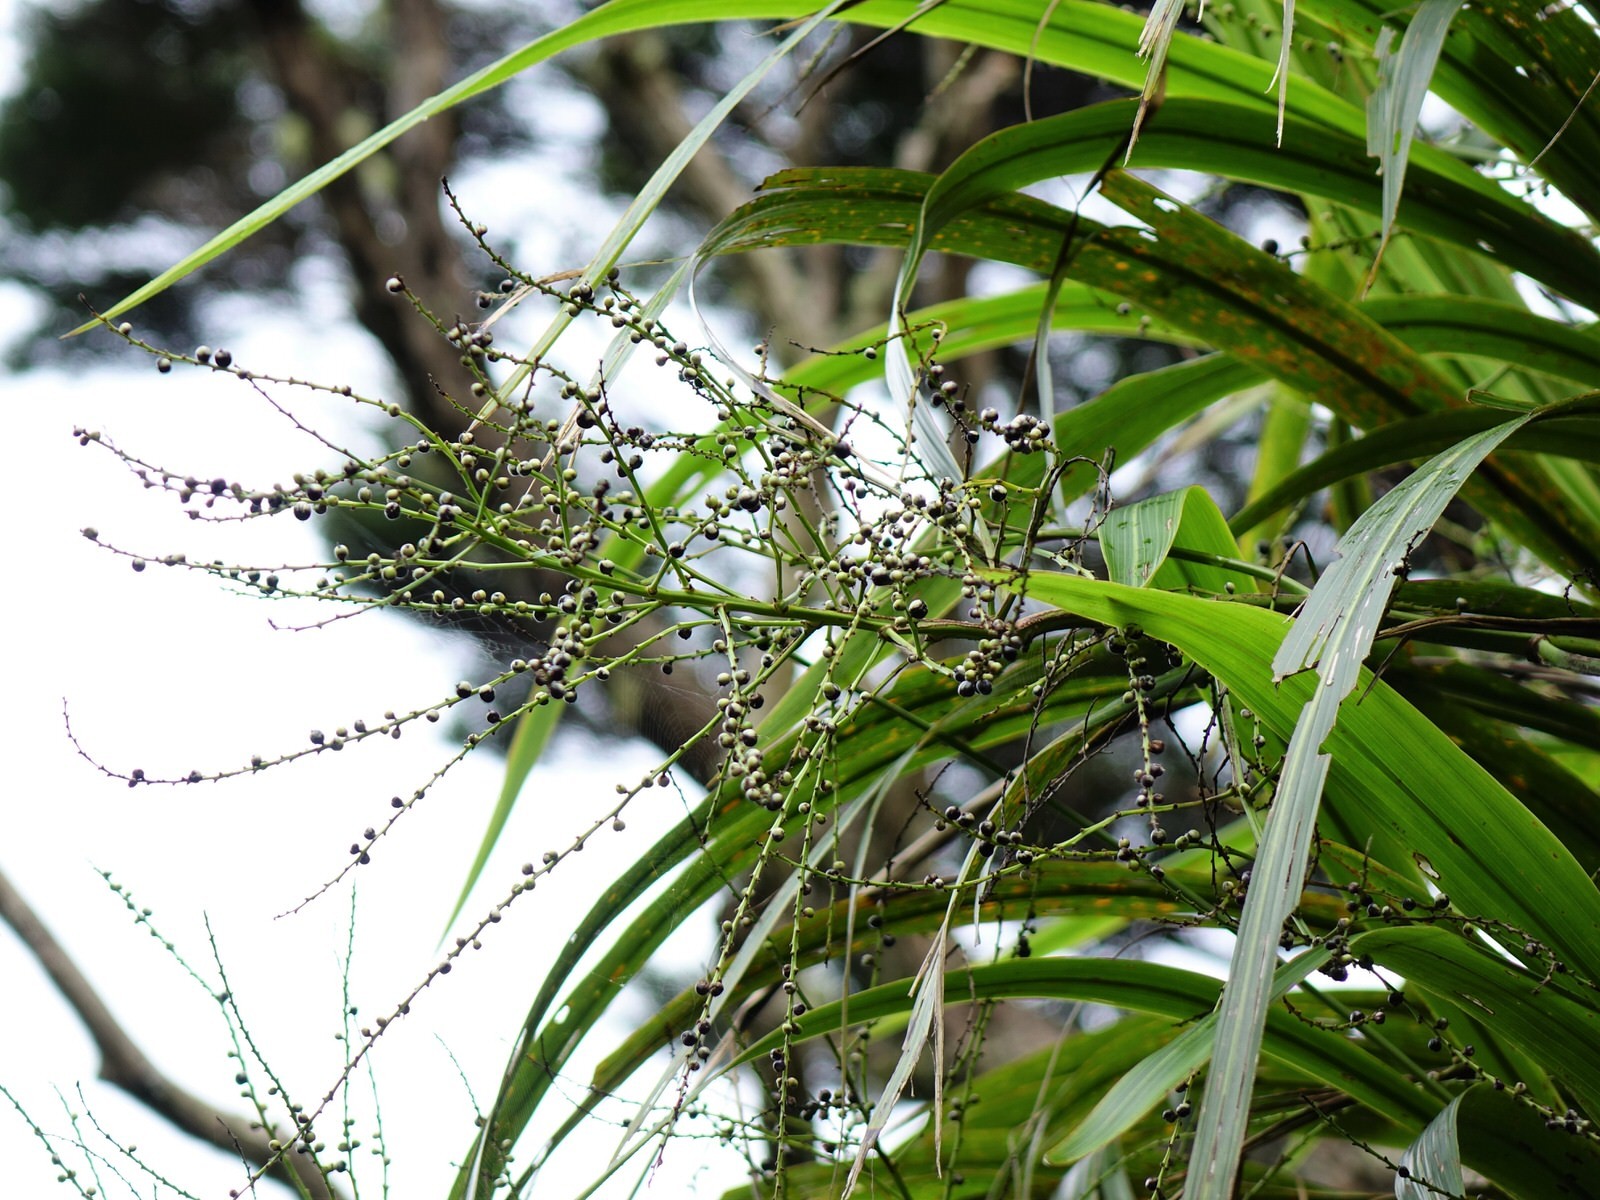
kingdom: Plantae
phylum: Tracheophyta
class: Liliopsida
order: Asparagales
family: Asparagaceae
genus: Cordyline
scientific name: Cordyline banksii
